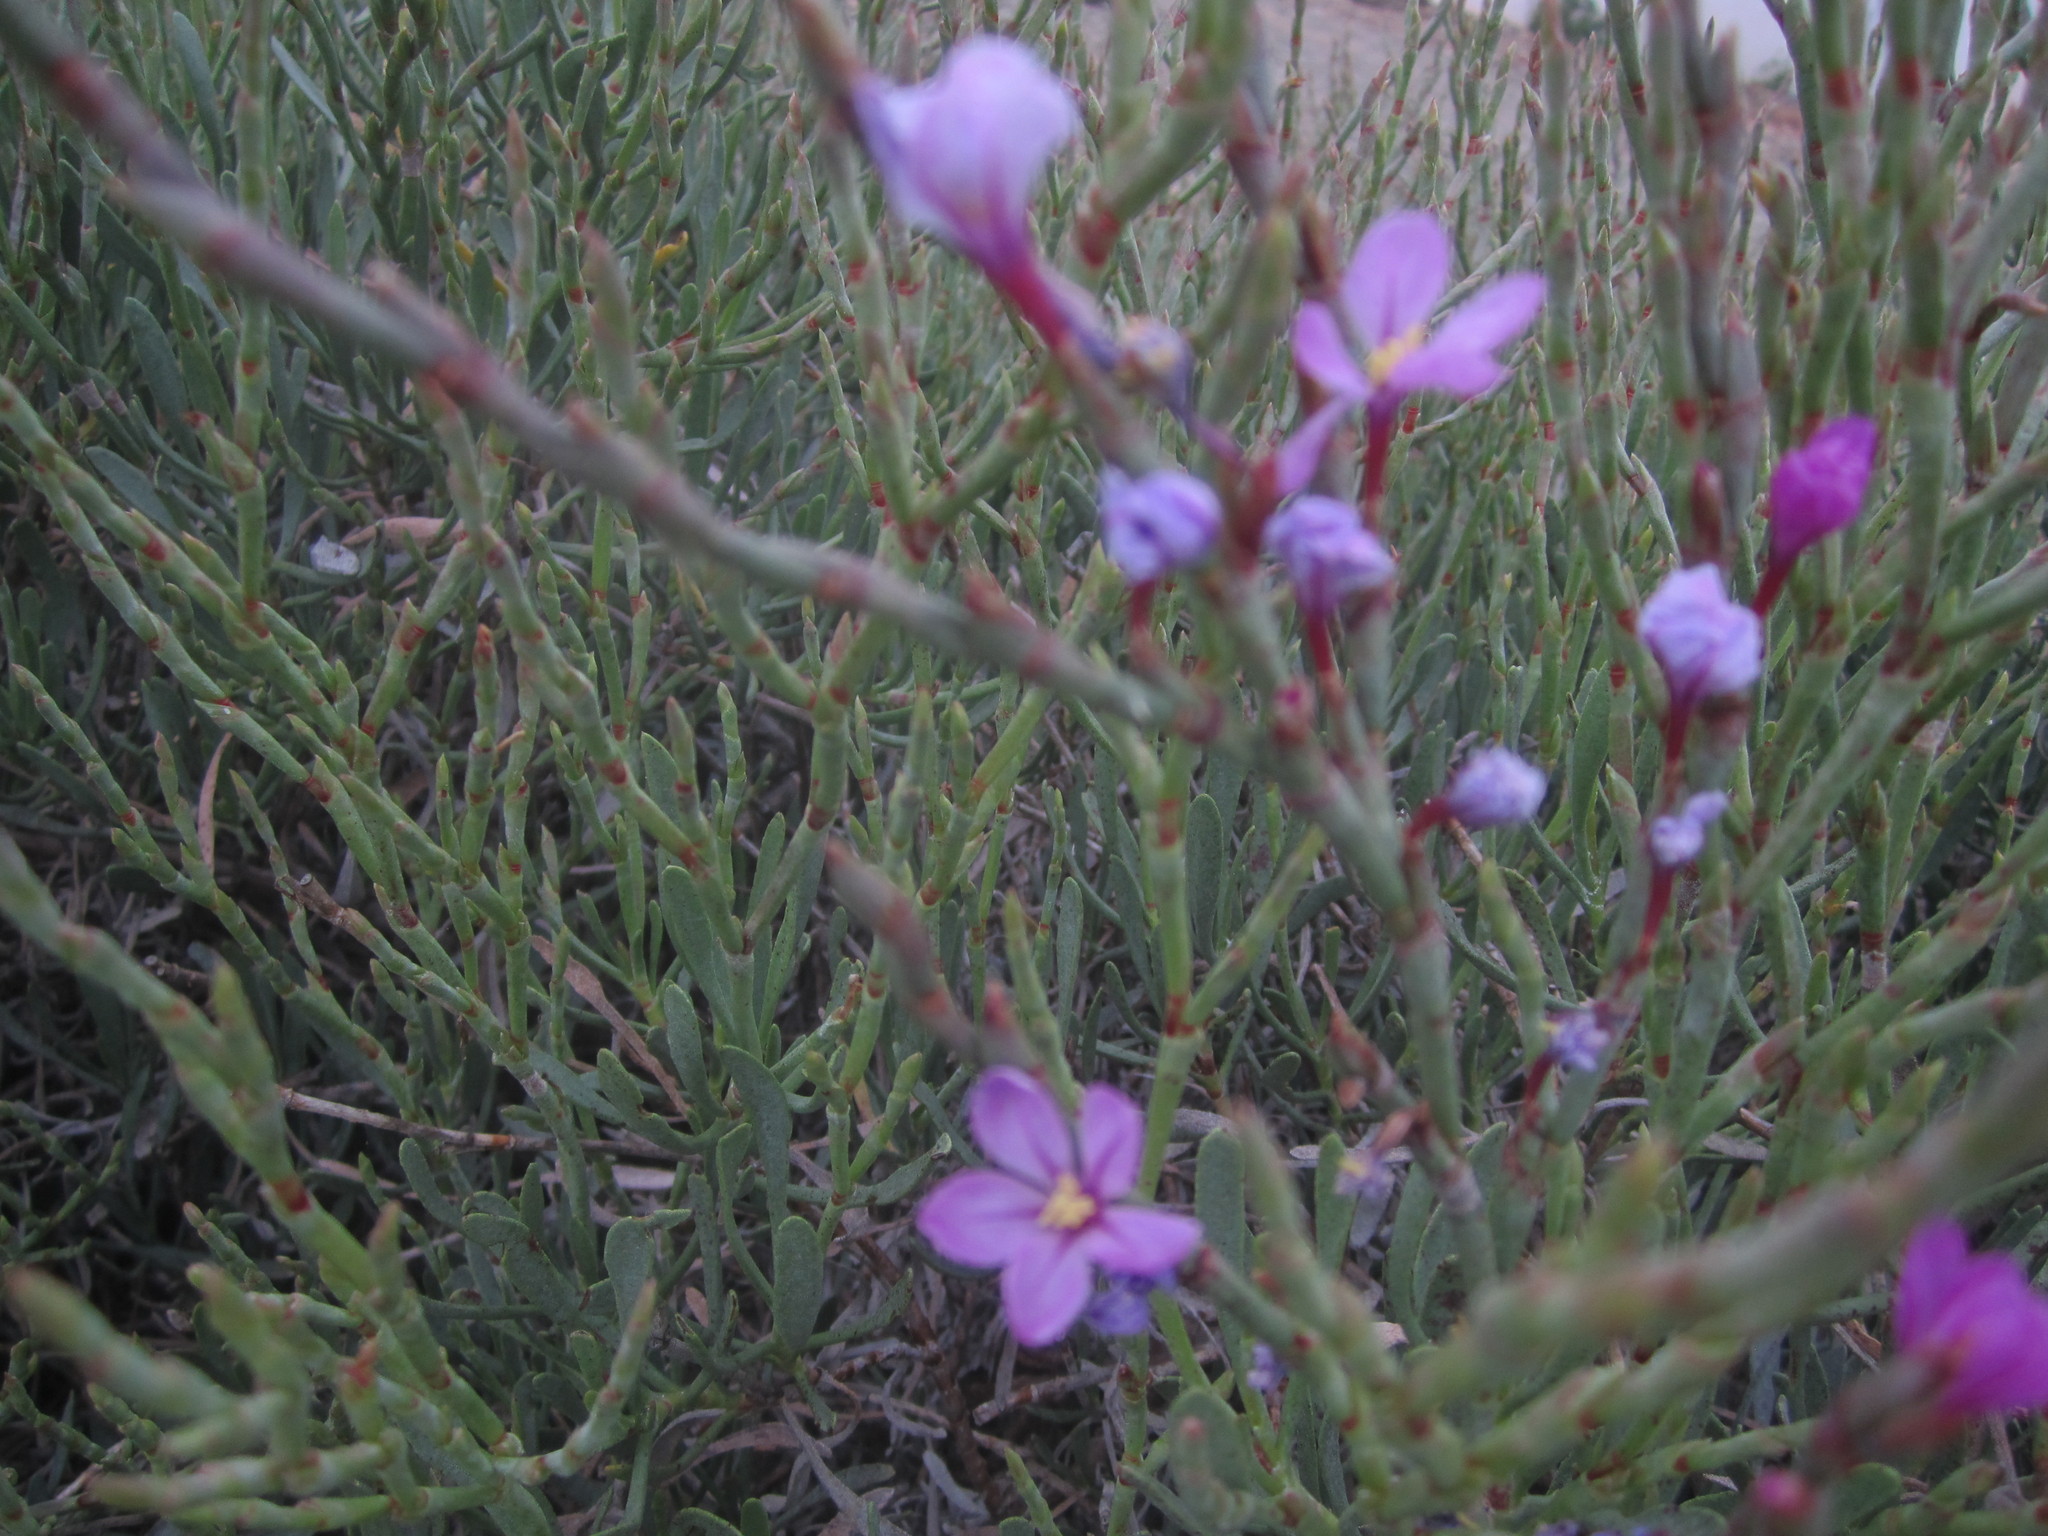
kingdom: Plantae
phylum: Tracheophyta
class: Magnoliopsida
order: Caryophyllales
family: Plumbaginaceae
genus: Limoniastrum
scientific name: Limoniastrum monopetalum
